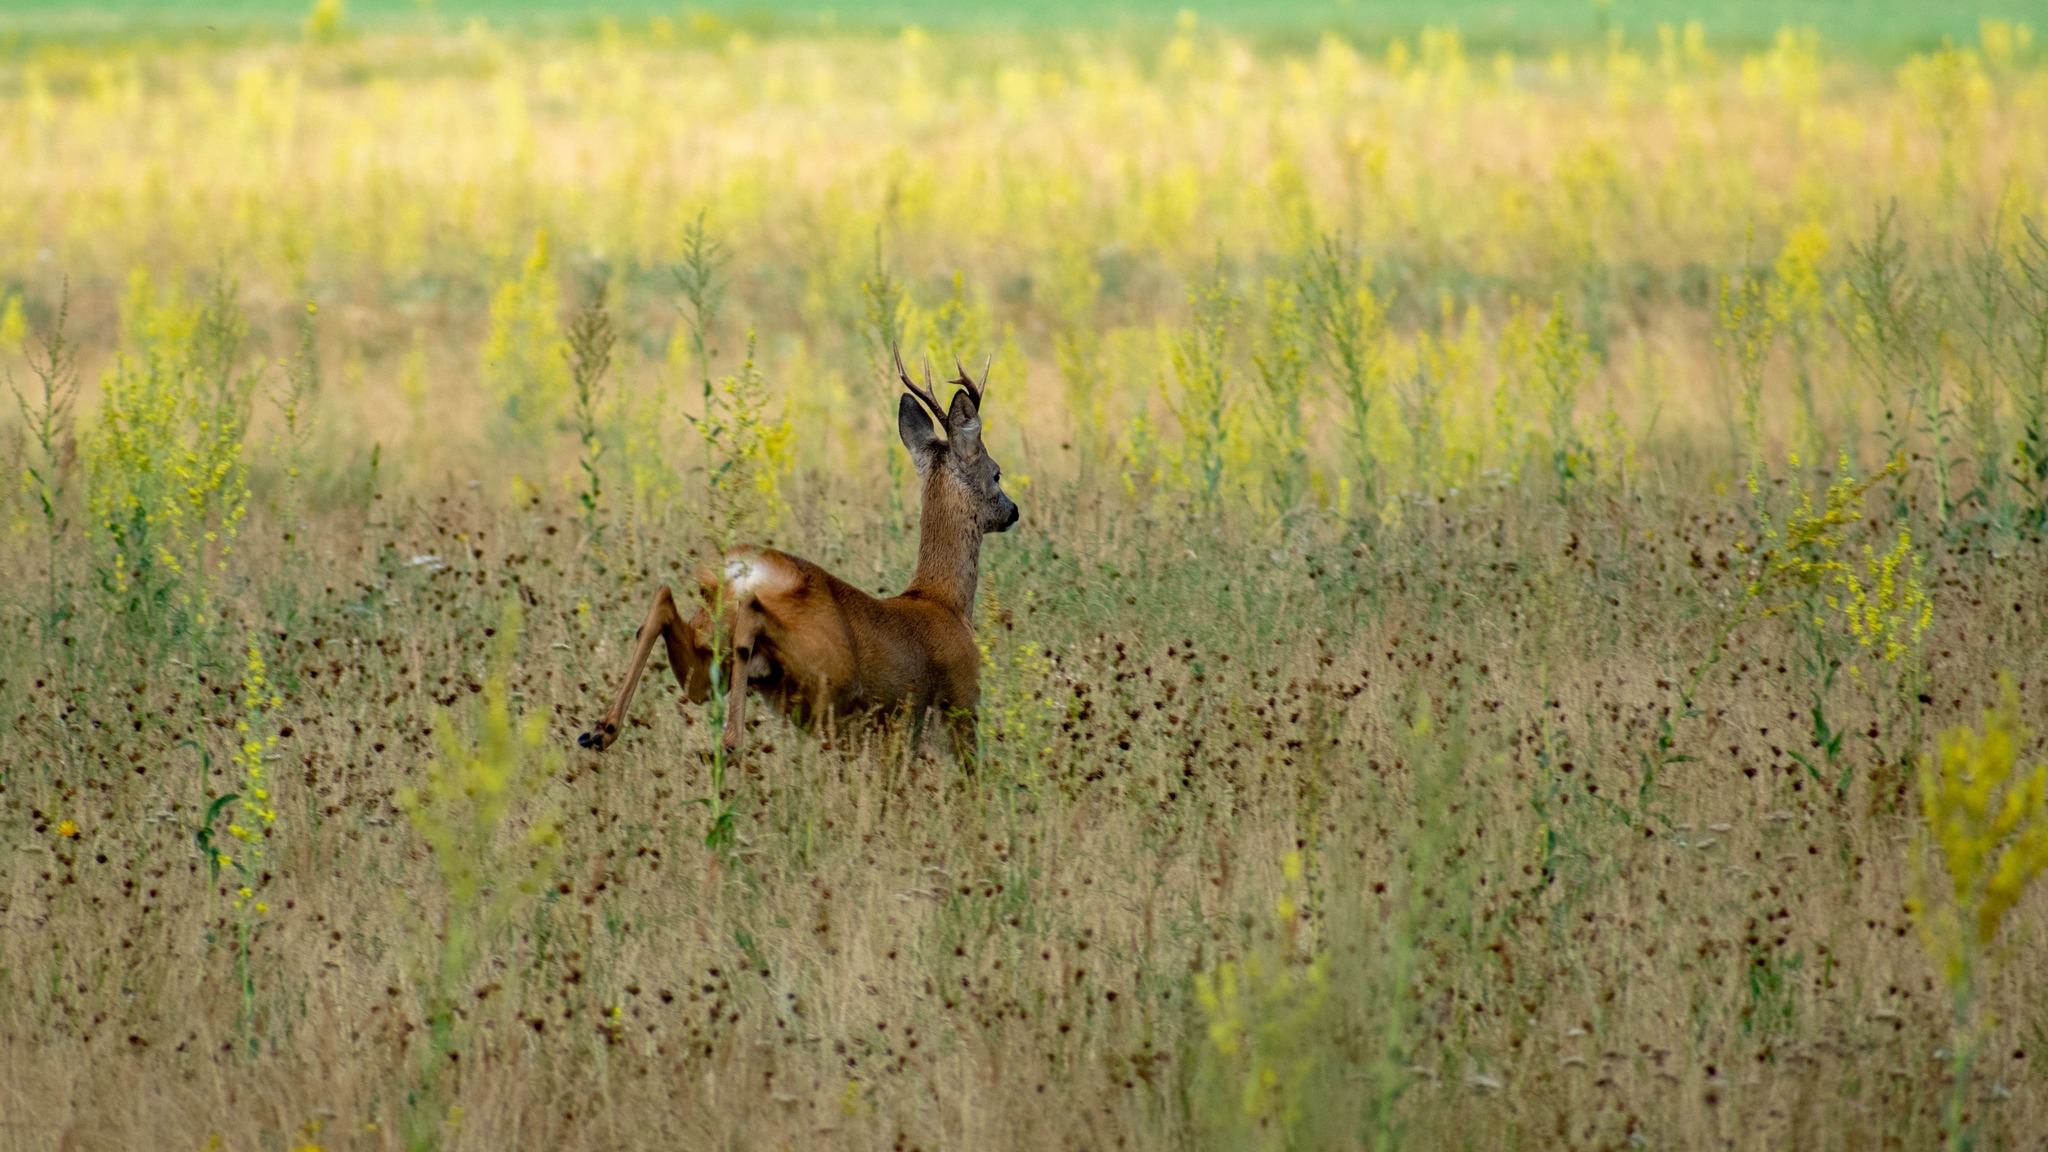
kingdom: Animalia
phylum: Chordata
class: Mammalia
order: Artiodactyla
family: Cervidae
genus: Capreolus
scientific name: Capreolus capreolus
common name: Western roe deer
